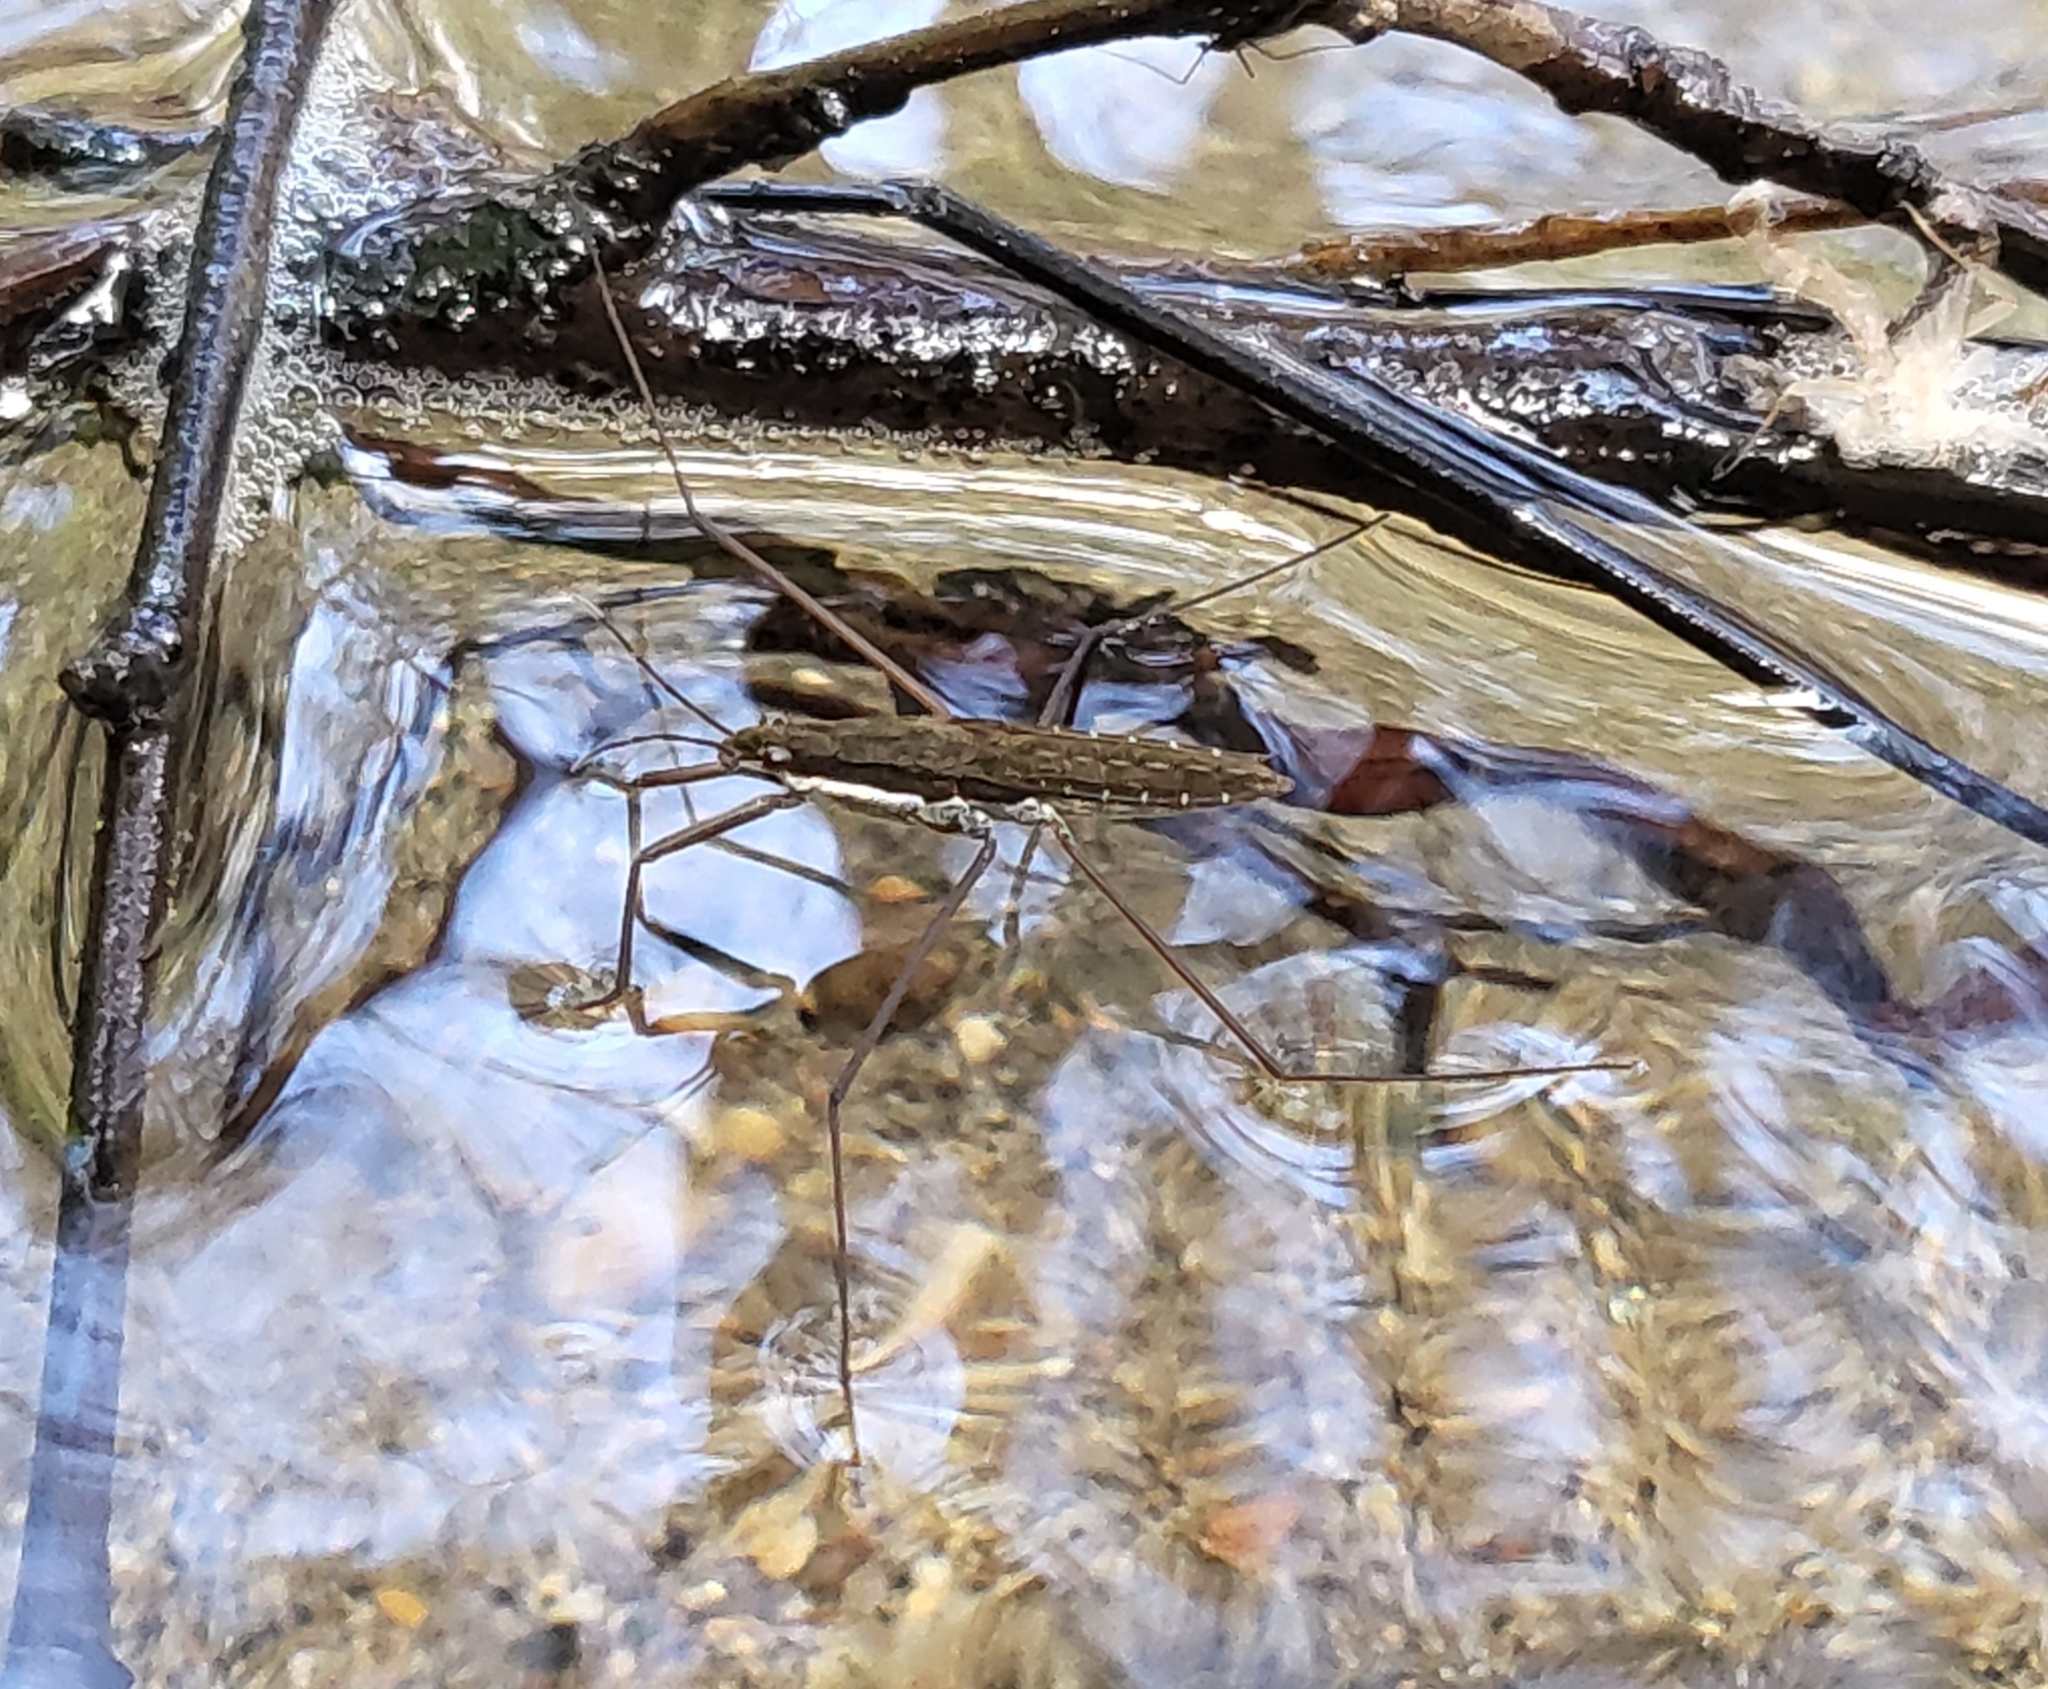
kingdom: Animalia
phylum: Arthropoda
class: Insecta
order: Hemiptera
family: Gerridae
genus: Aquarius
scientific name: Aquarius remigis
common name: Common water strider
